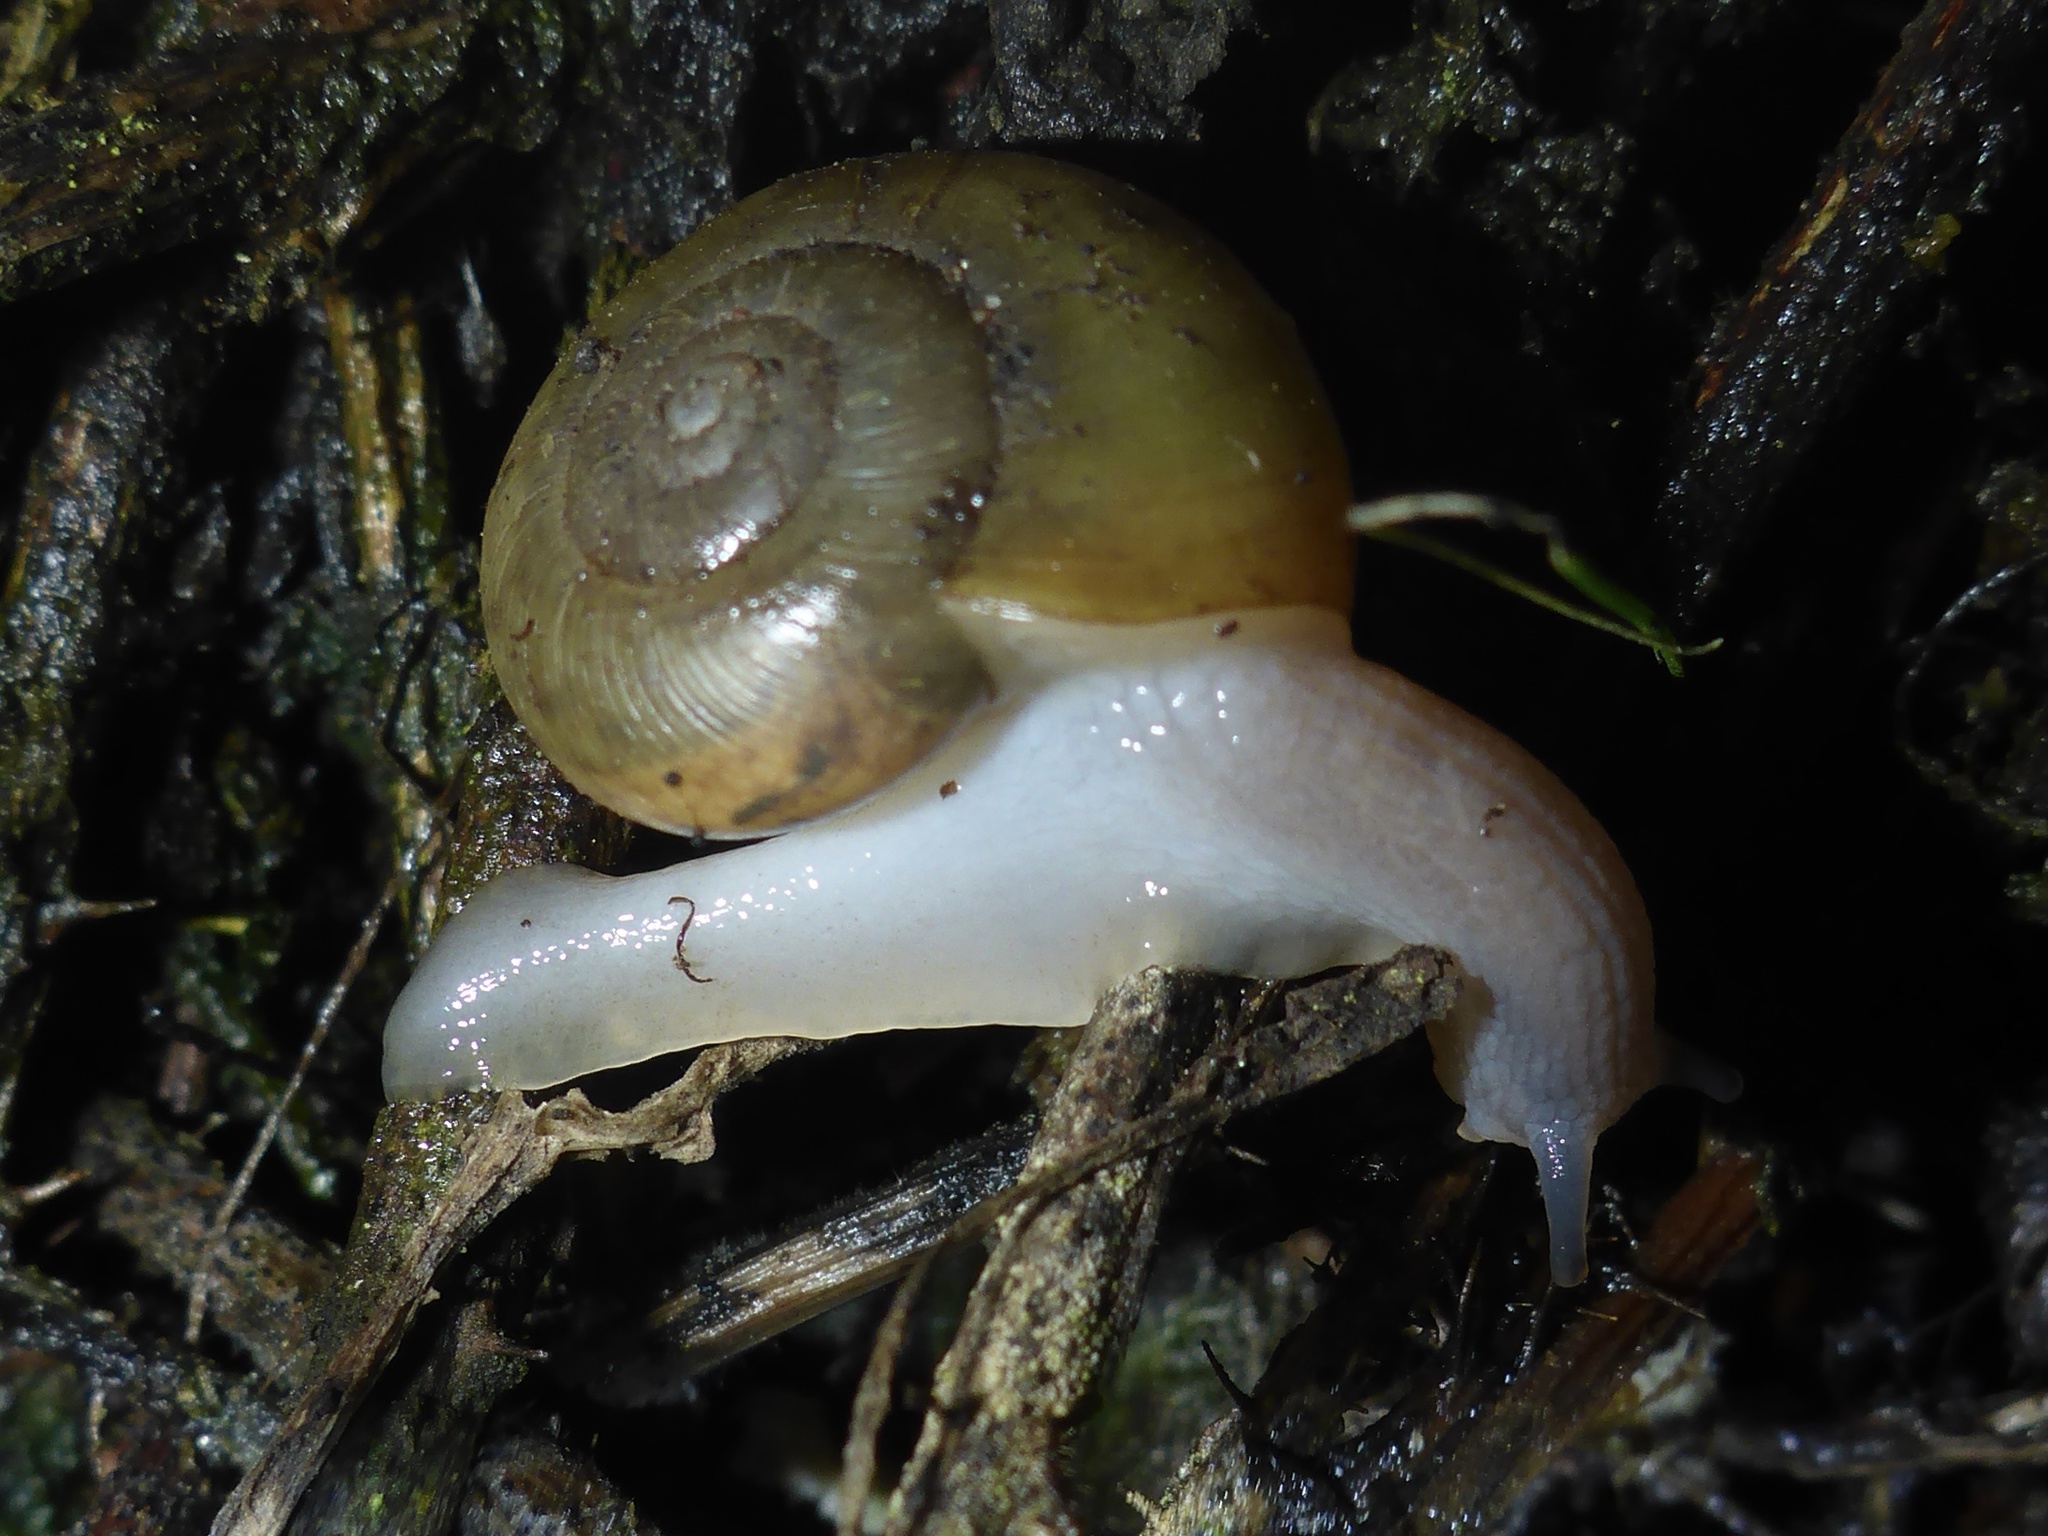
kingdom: Animalia
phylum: Mollusca
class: Gastropoda
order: Stylommatophora
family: Haplotrematidae
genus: Haplotrema
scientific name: Haplotrema minimum
